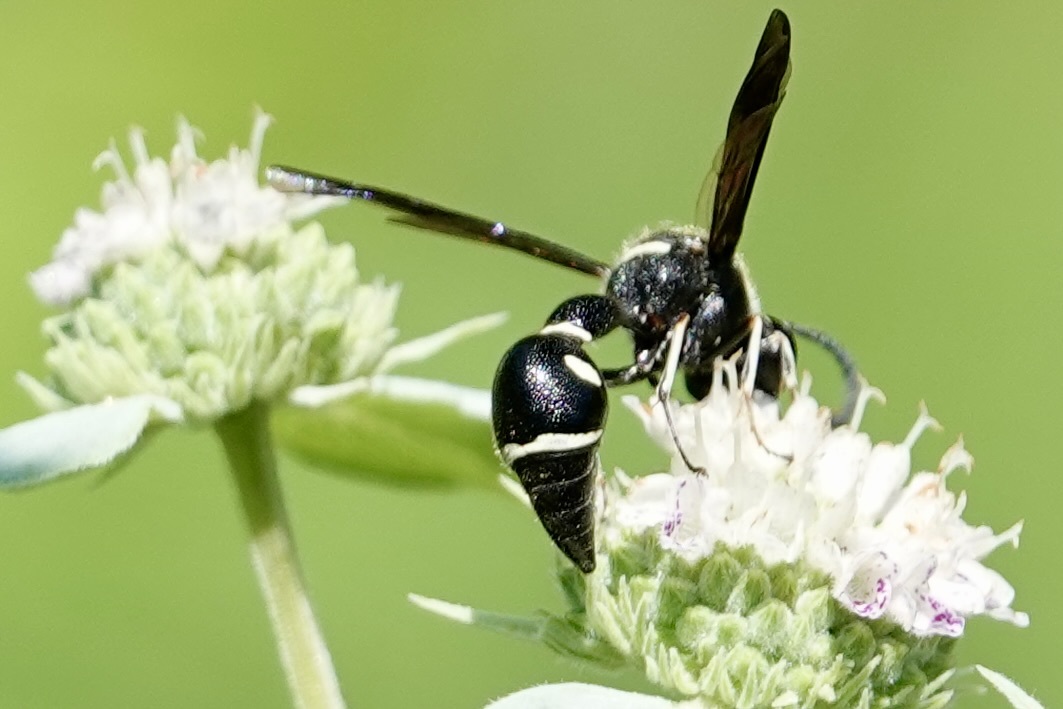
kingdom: Animalia
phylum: Arthropoda
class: Insecta
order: Hymenoptera
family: Vespidae
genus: Eumenes
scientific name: Eumenes fraternus
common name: Fraternal potter wasp
